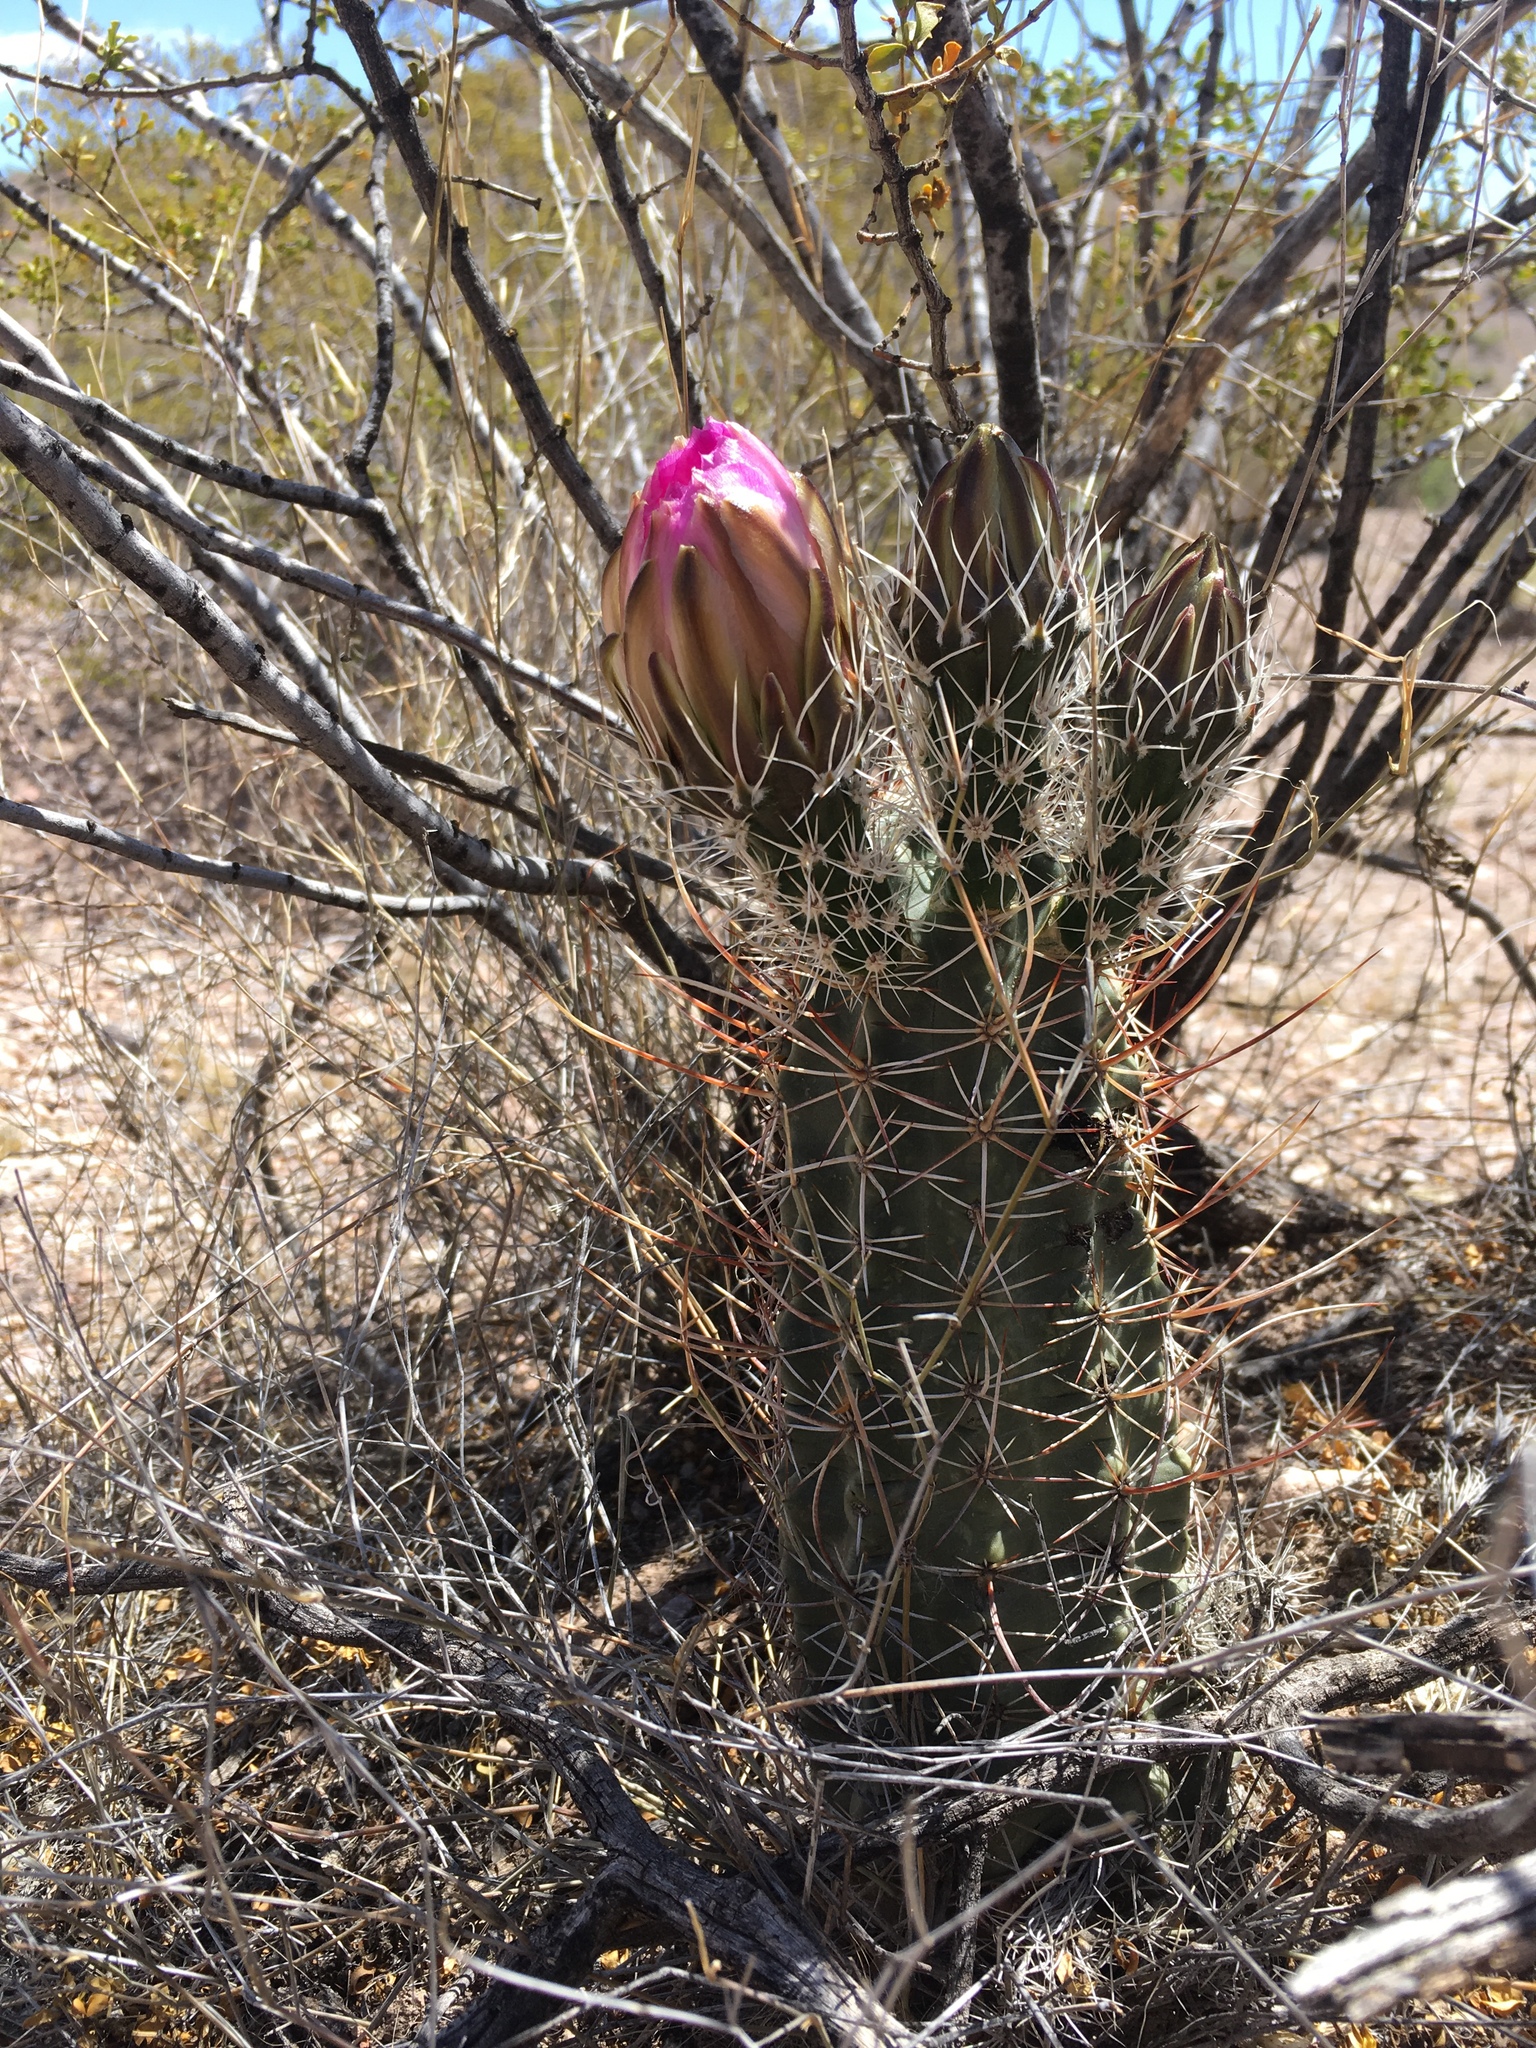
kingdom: Plantae
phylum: Tracheophyta
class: Magnoliopsida
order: Caryophyllales
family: Cactaceae
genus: Echinocereus
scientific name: Echinocereus fendleri
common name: Fendler's hedgehog cactus
